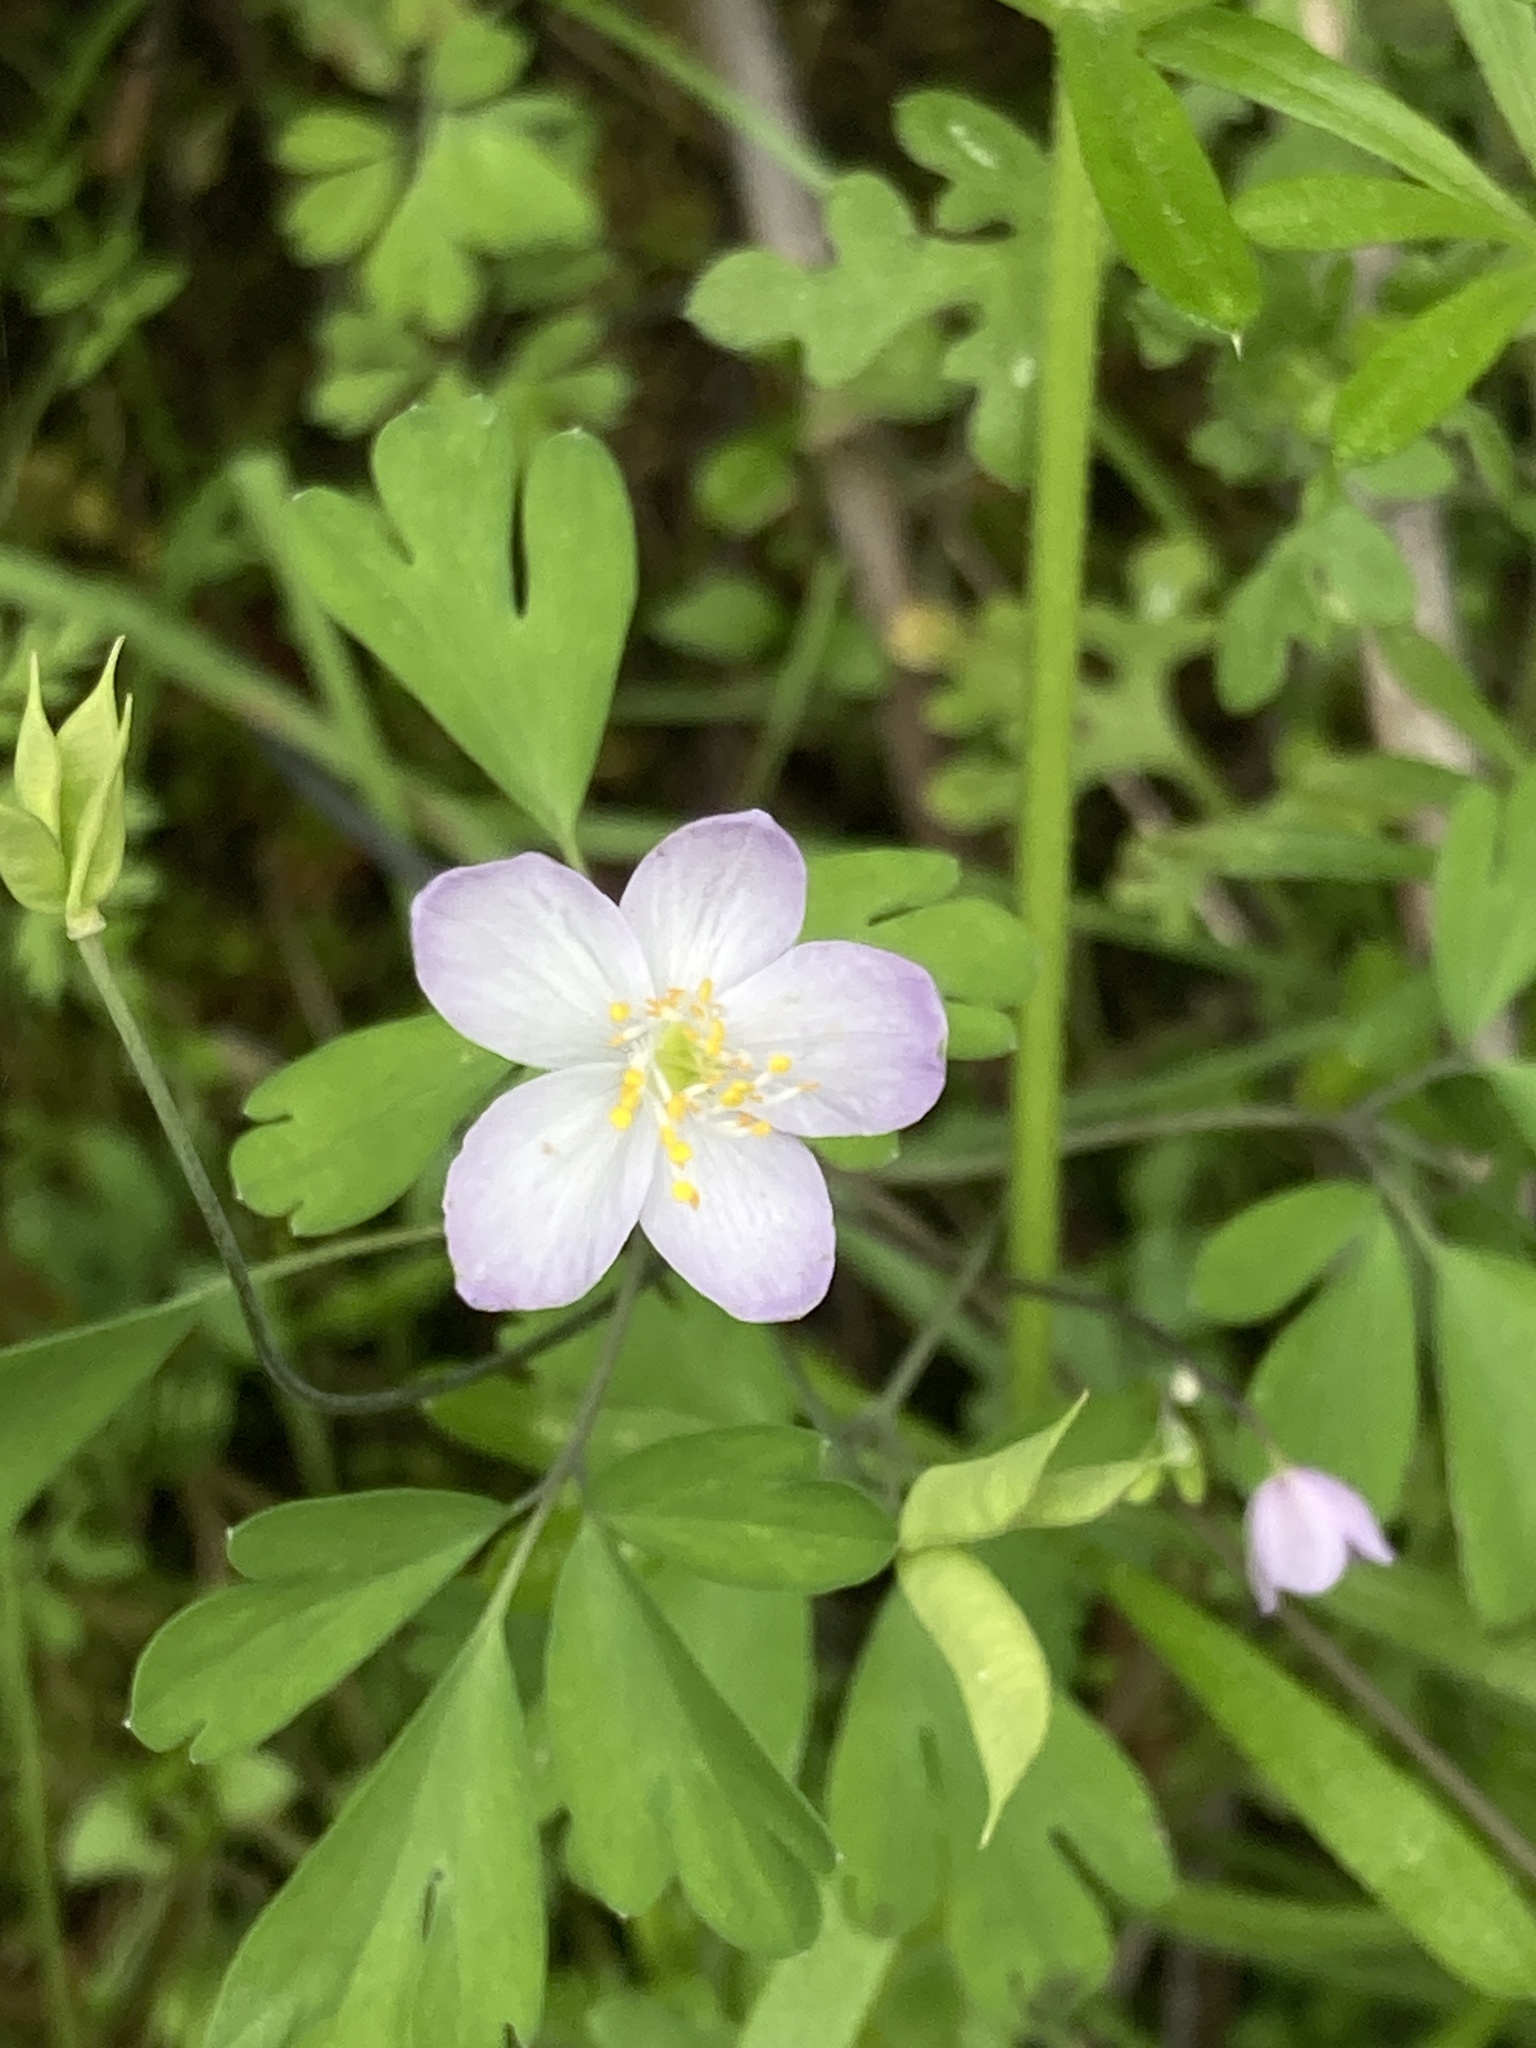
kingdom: Plantae
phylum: Tracheophyta
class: Magnoliopsida
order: Ranunculales
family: Ranunculaceae
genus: Enemion
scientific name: Enemion occidentale
